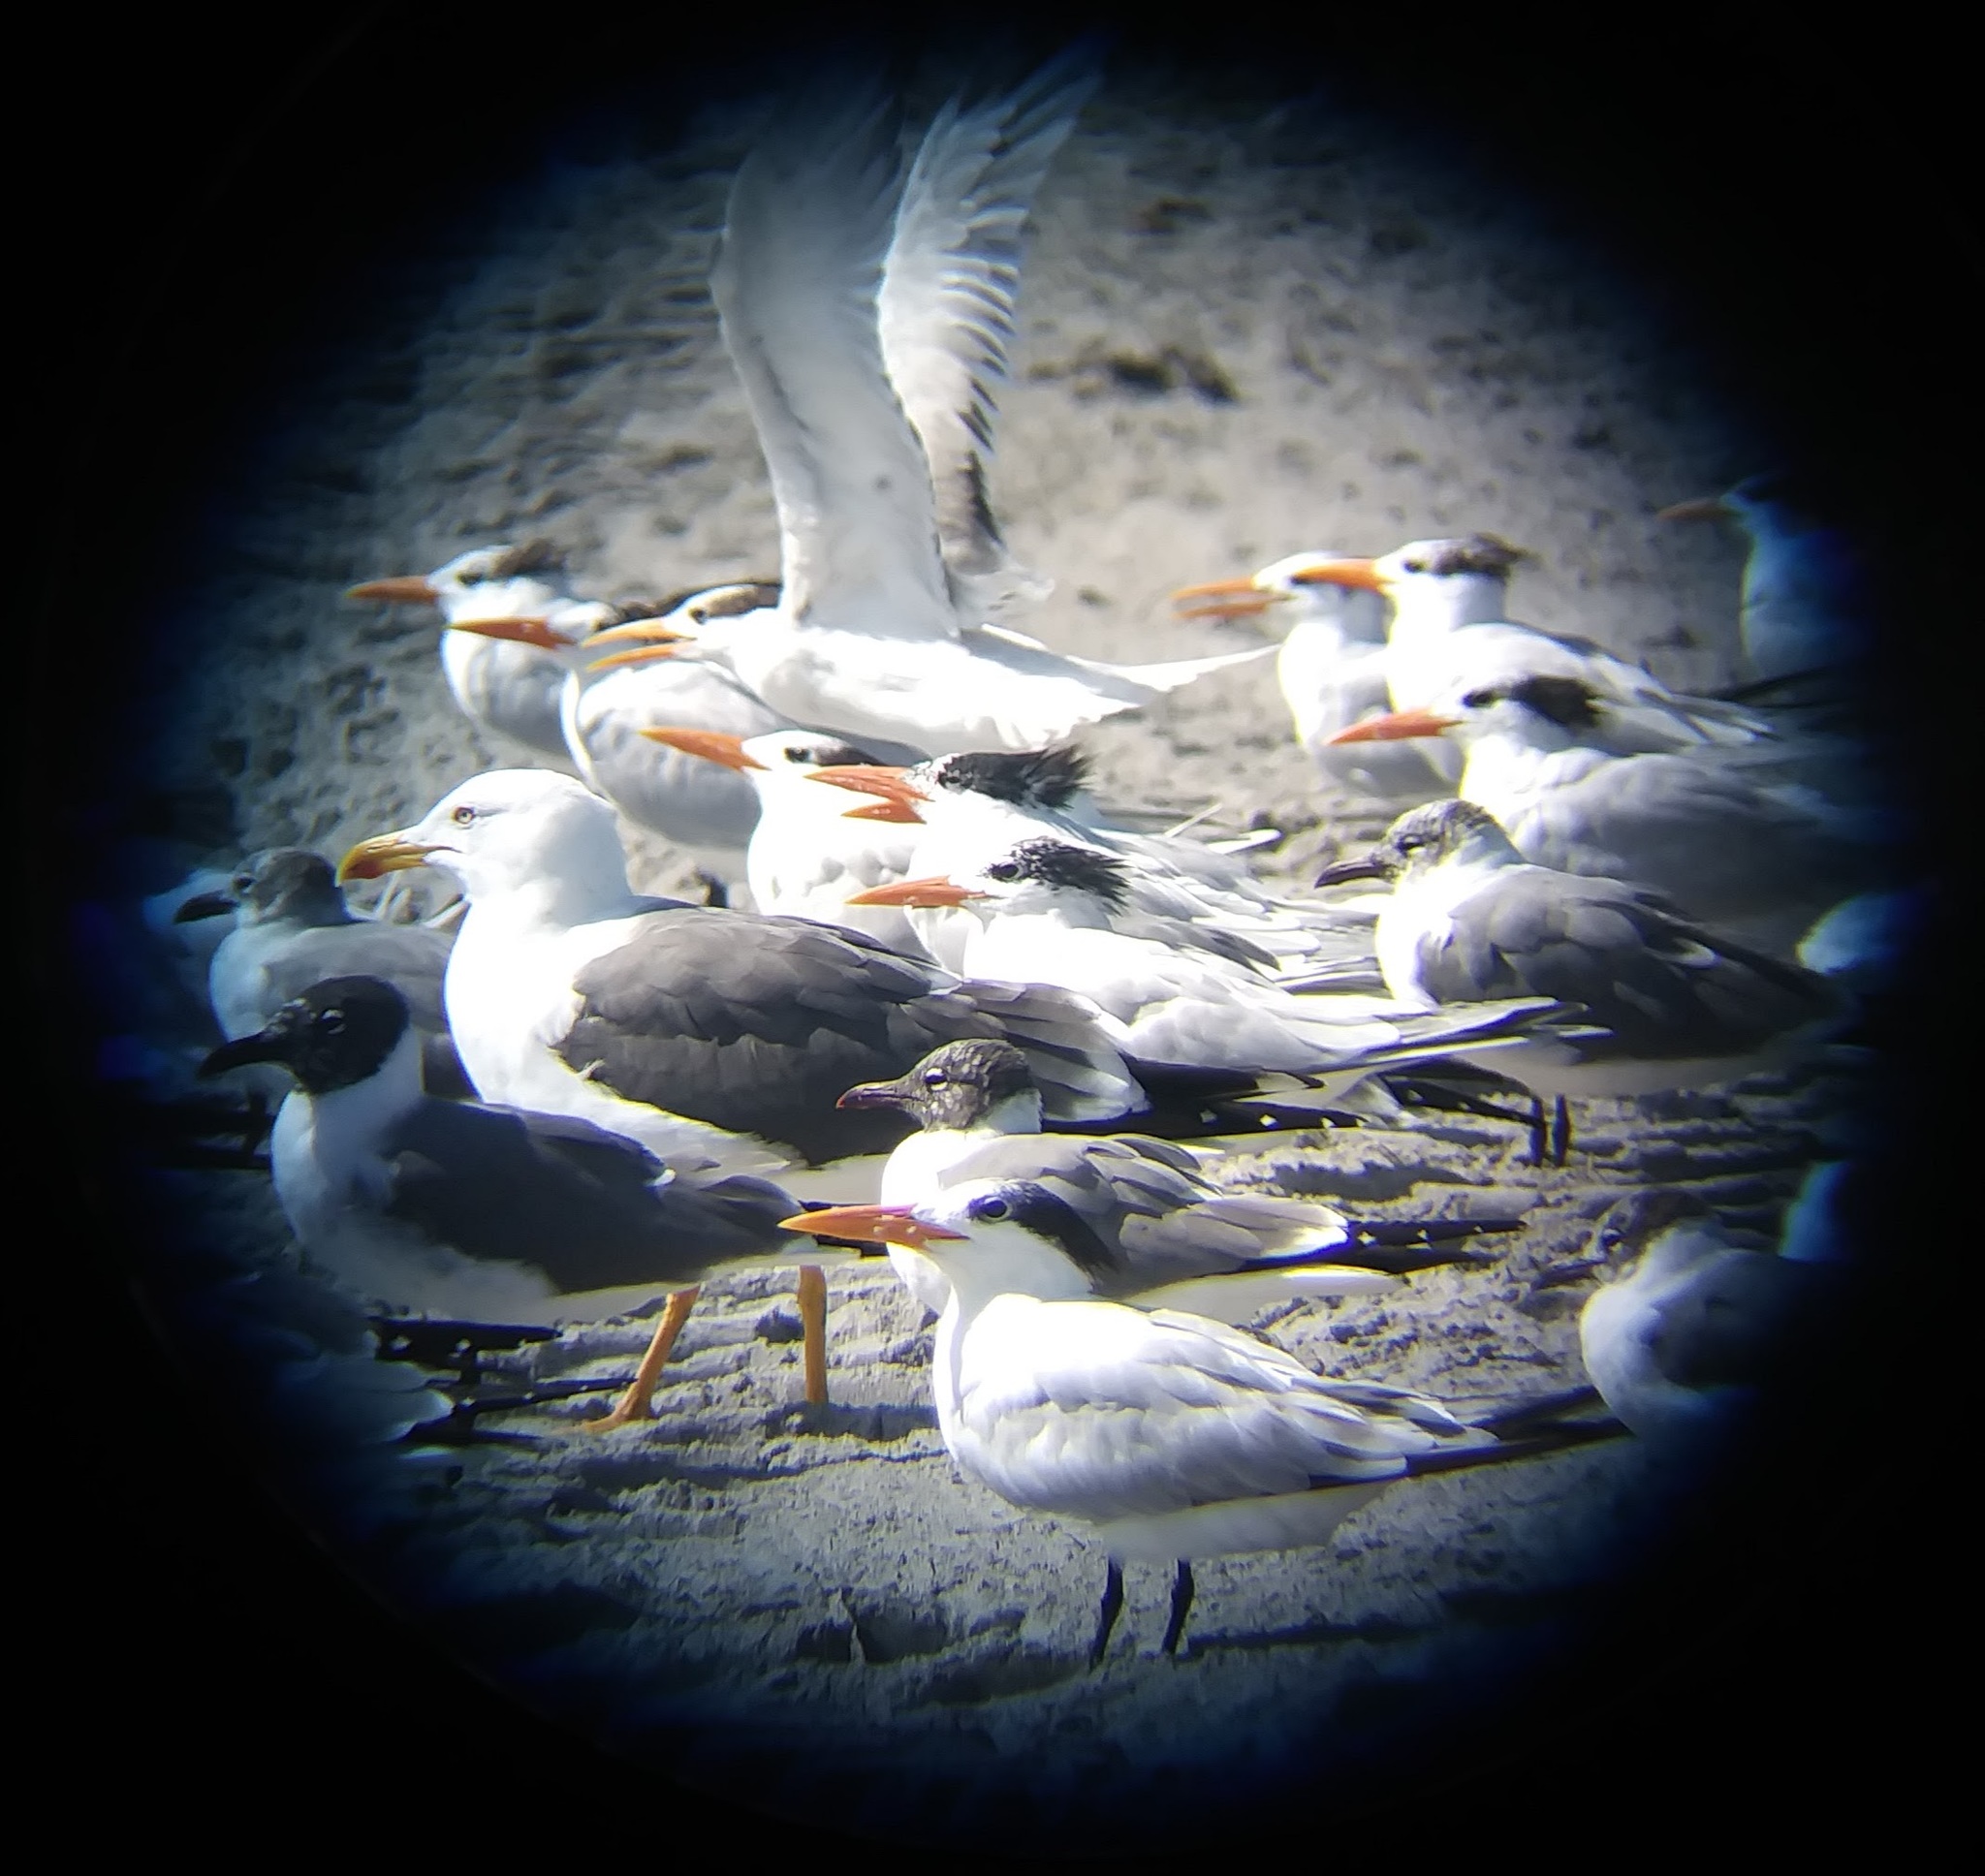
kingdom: Animalia
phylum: Chordata
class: Aves
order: Charadriiformes
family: Laridae
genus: Leucophaeus
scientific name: Leucophaeus atricilla
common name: Laughing gull
